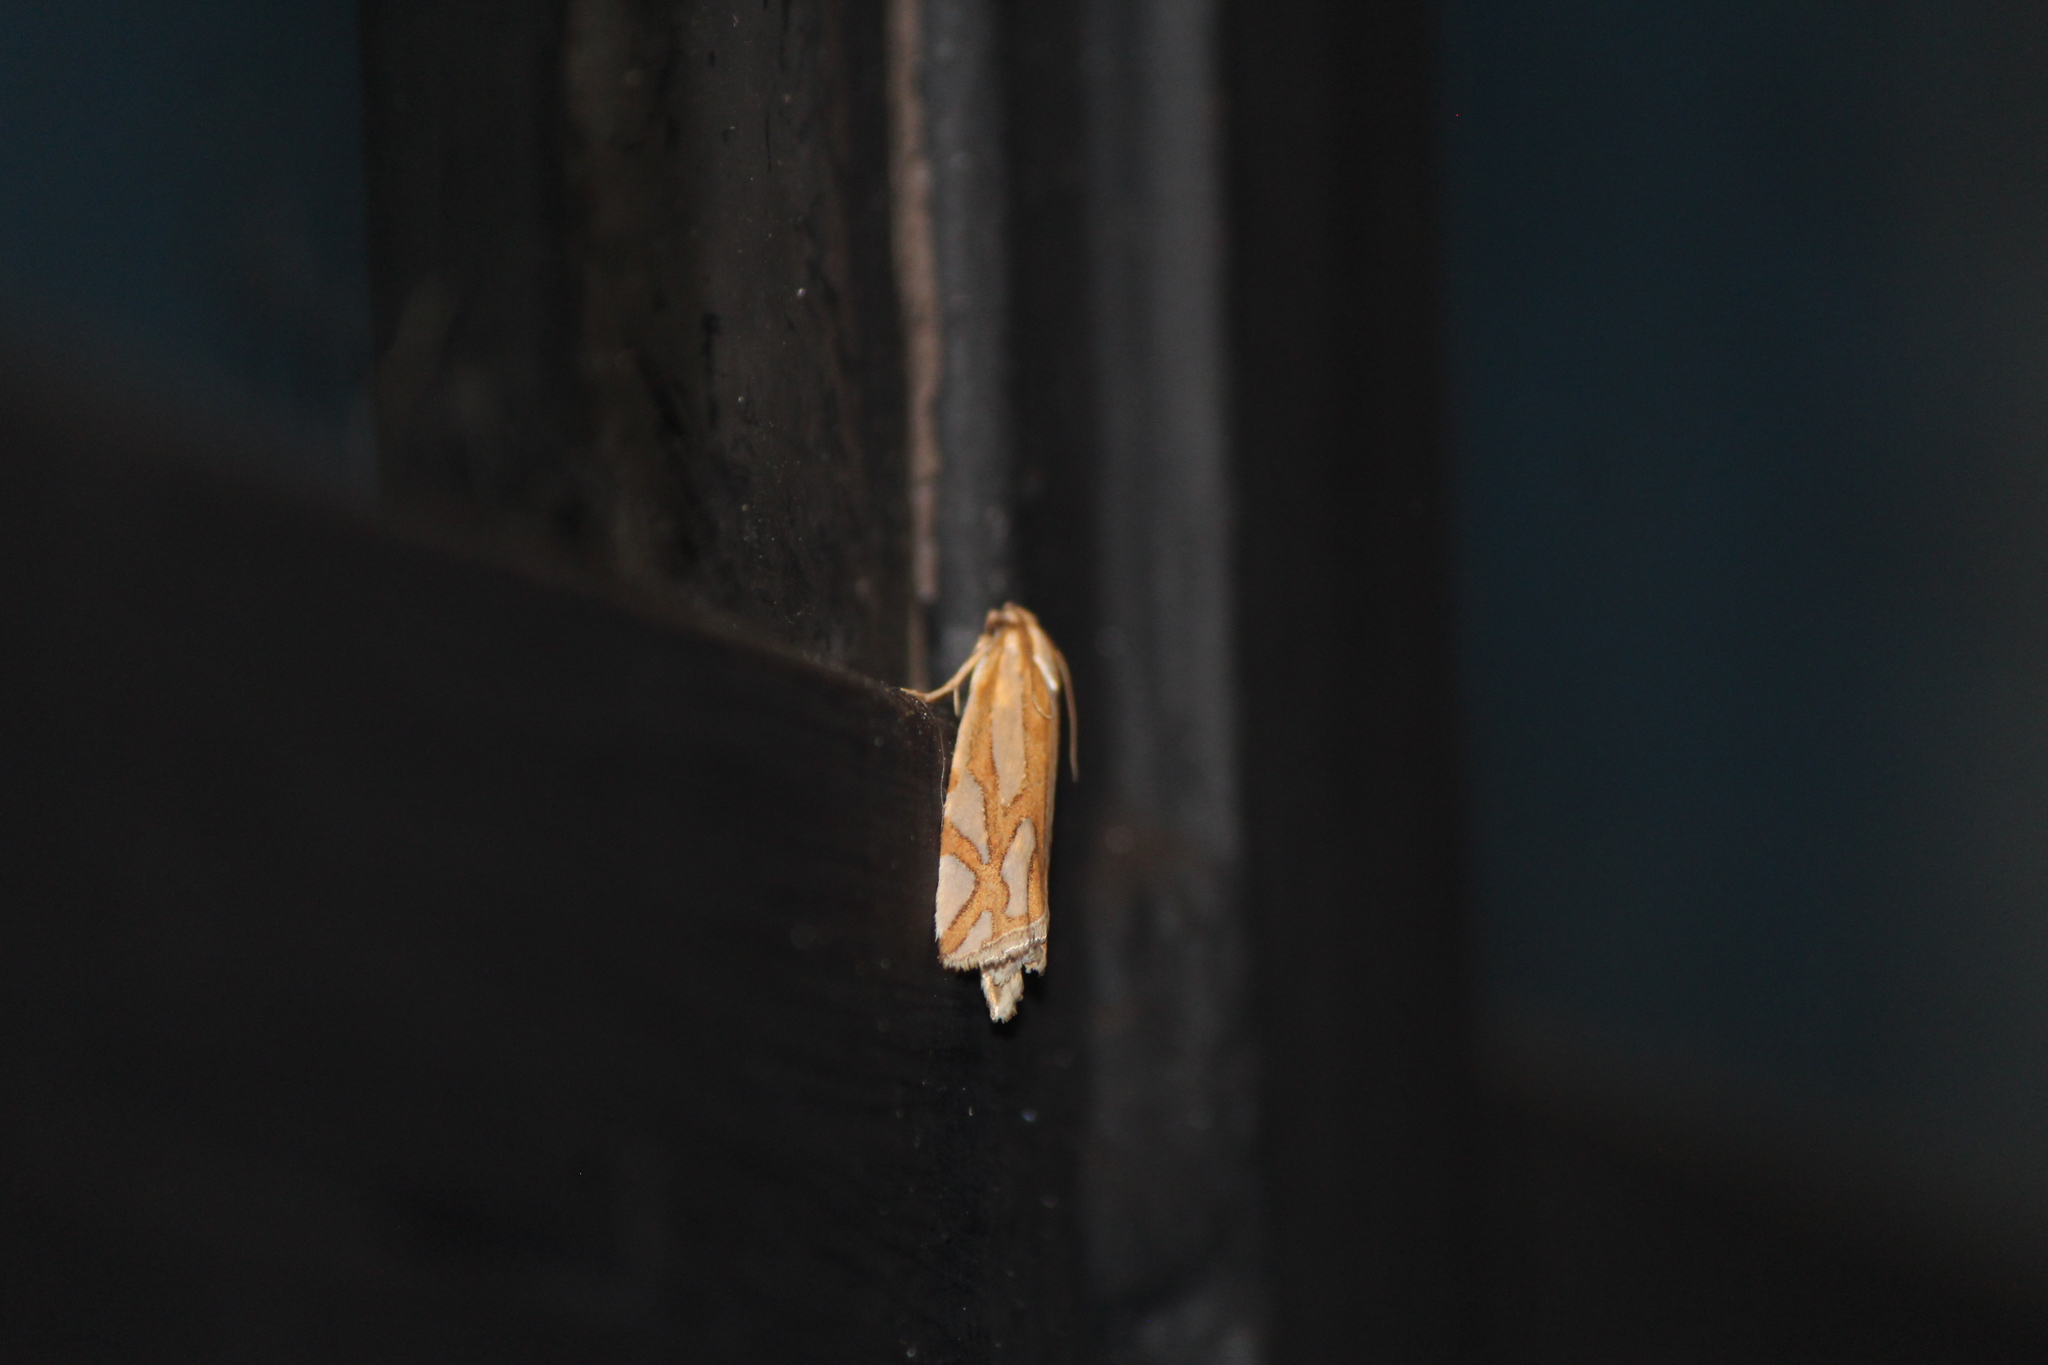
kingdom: Animalia
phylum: Arthropoda
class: Insecta
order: Lepidoptera
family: Tortricidae
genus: Pelochrista
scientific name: Pelochrista ridingsana
